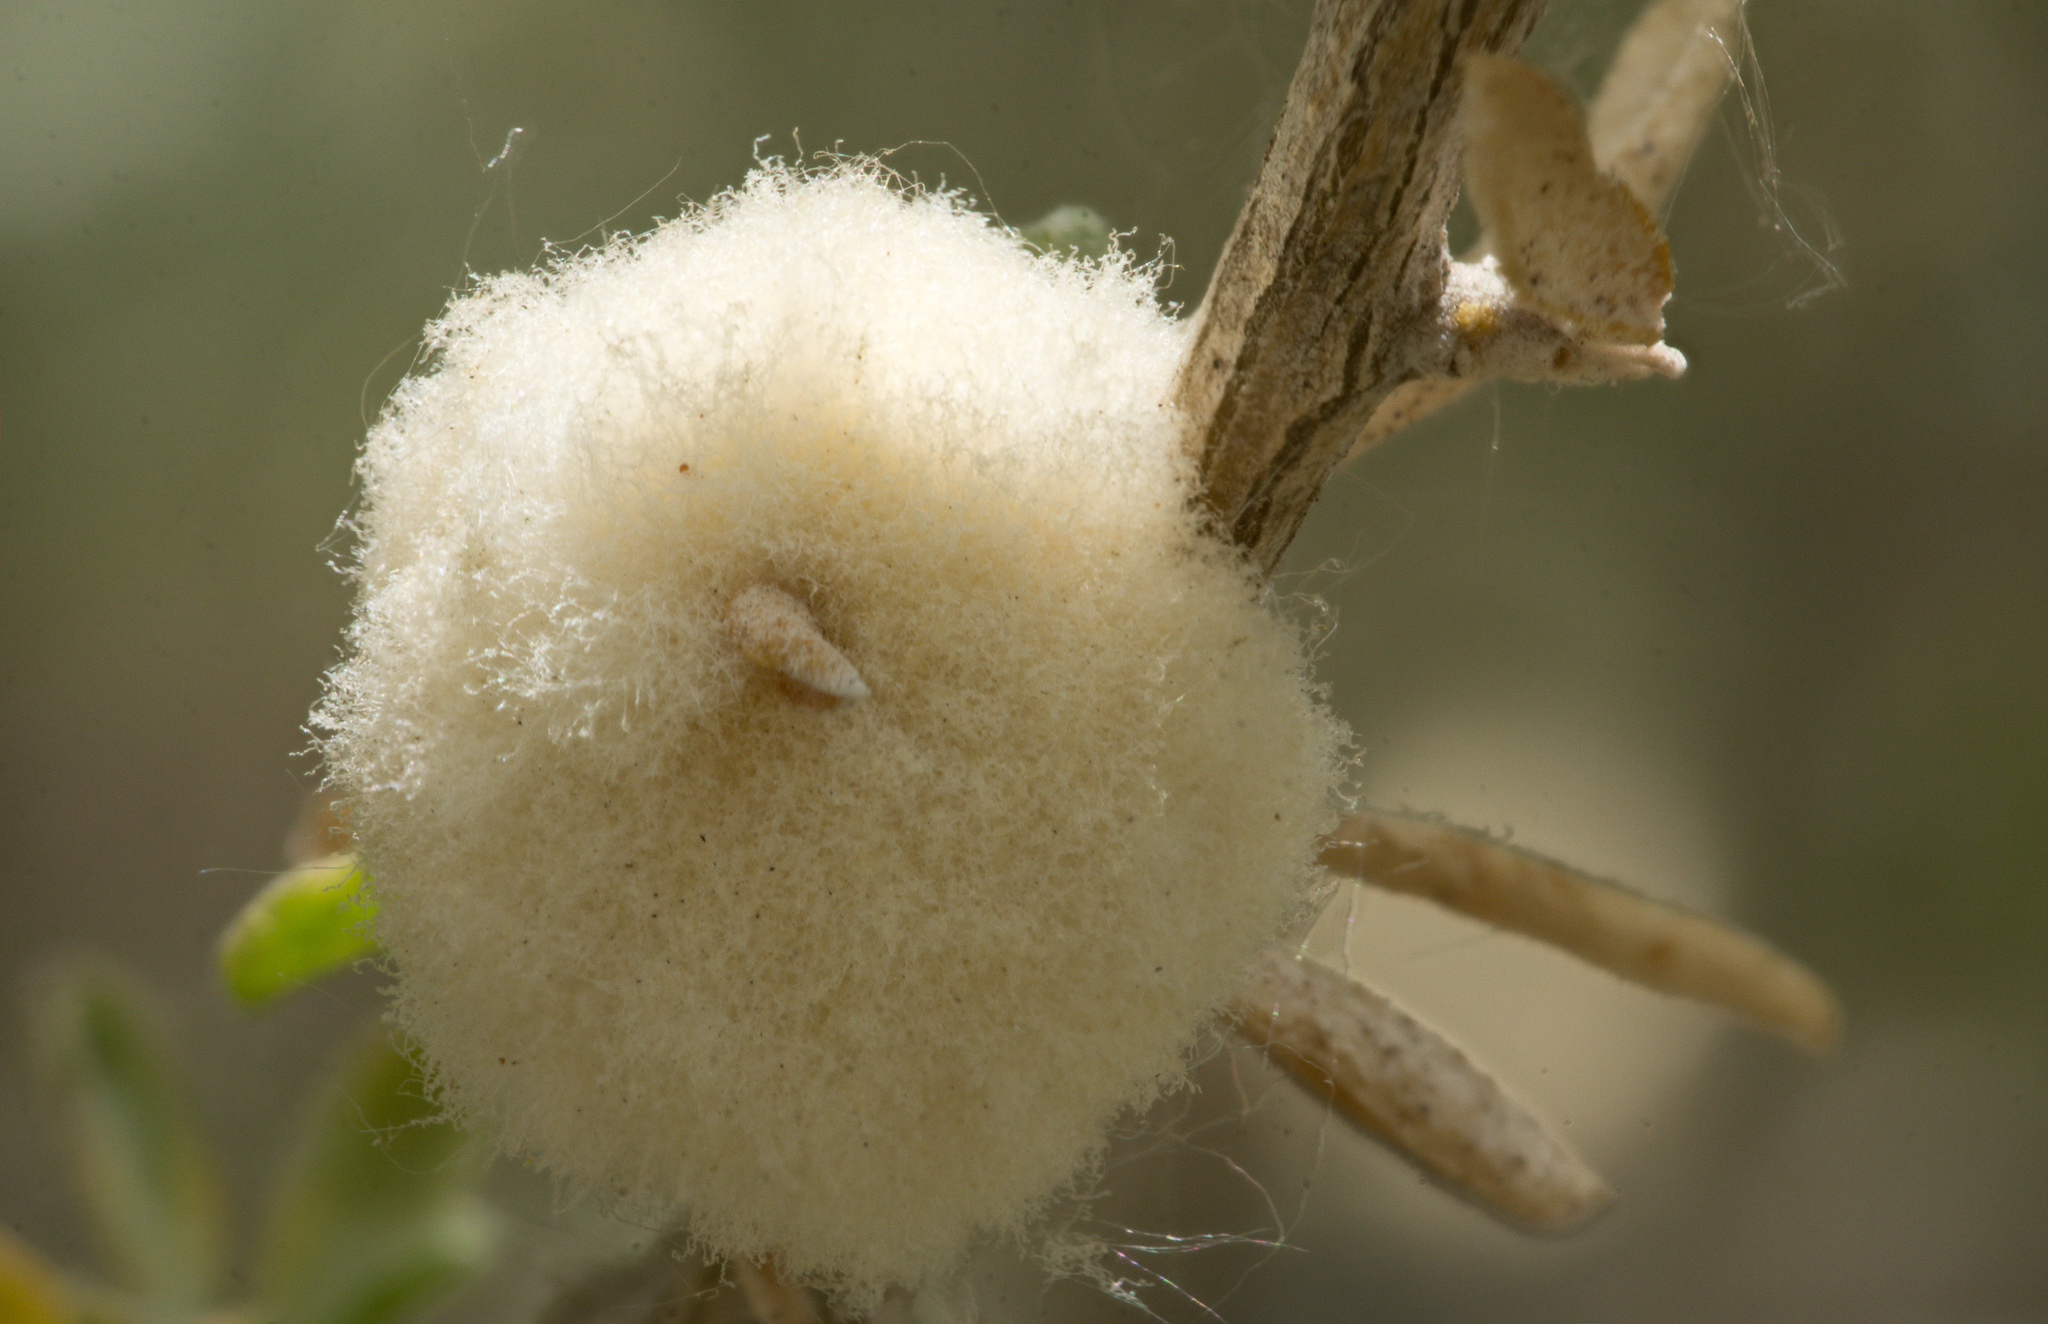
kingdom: Animalia
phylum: Arthropoda
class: Insecta
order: Diptera
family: Cecidomyiidae
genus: Asphondylia
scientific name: Asphondylia neomexicana
